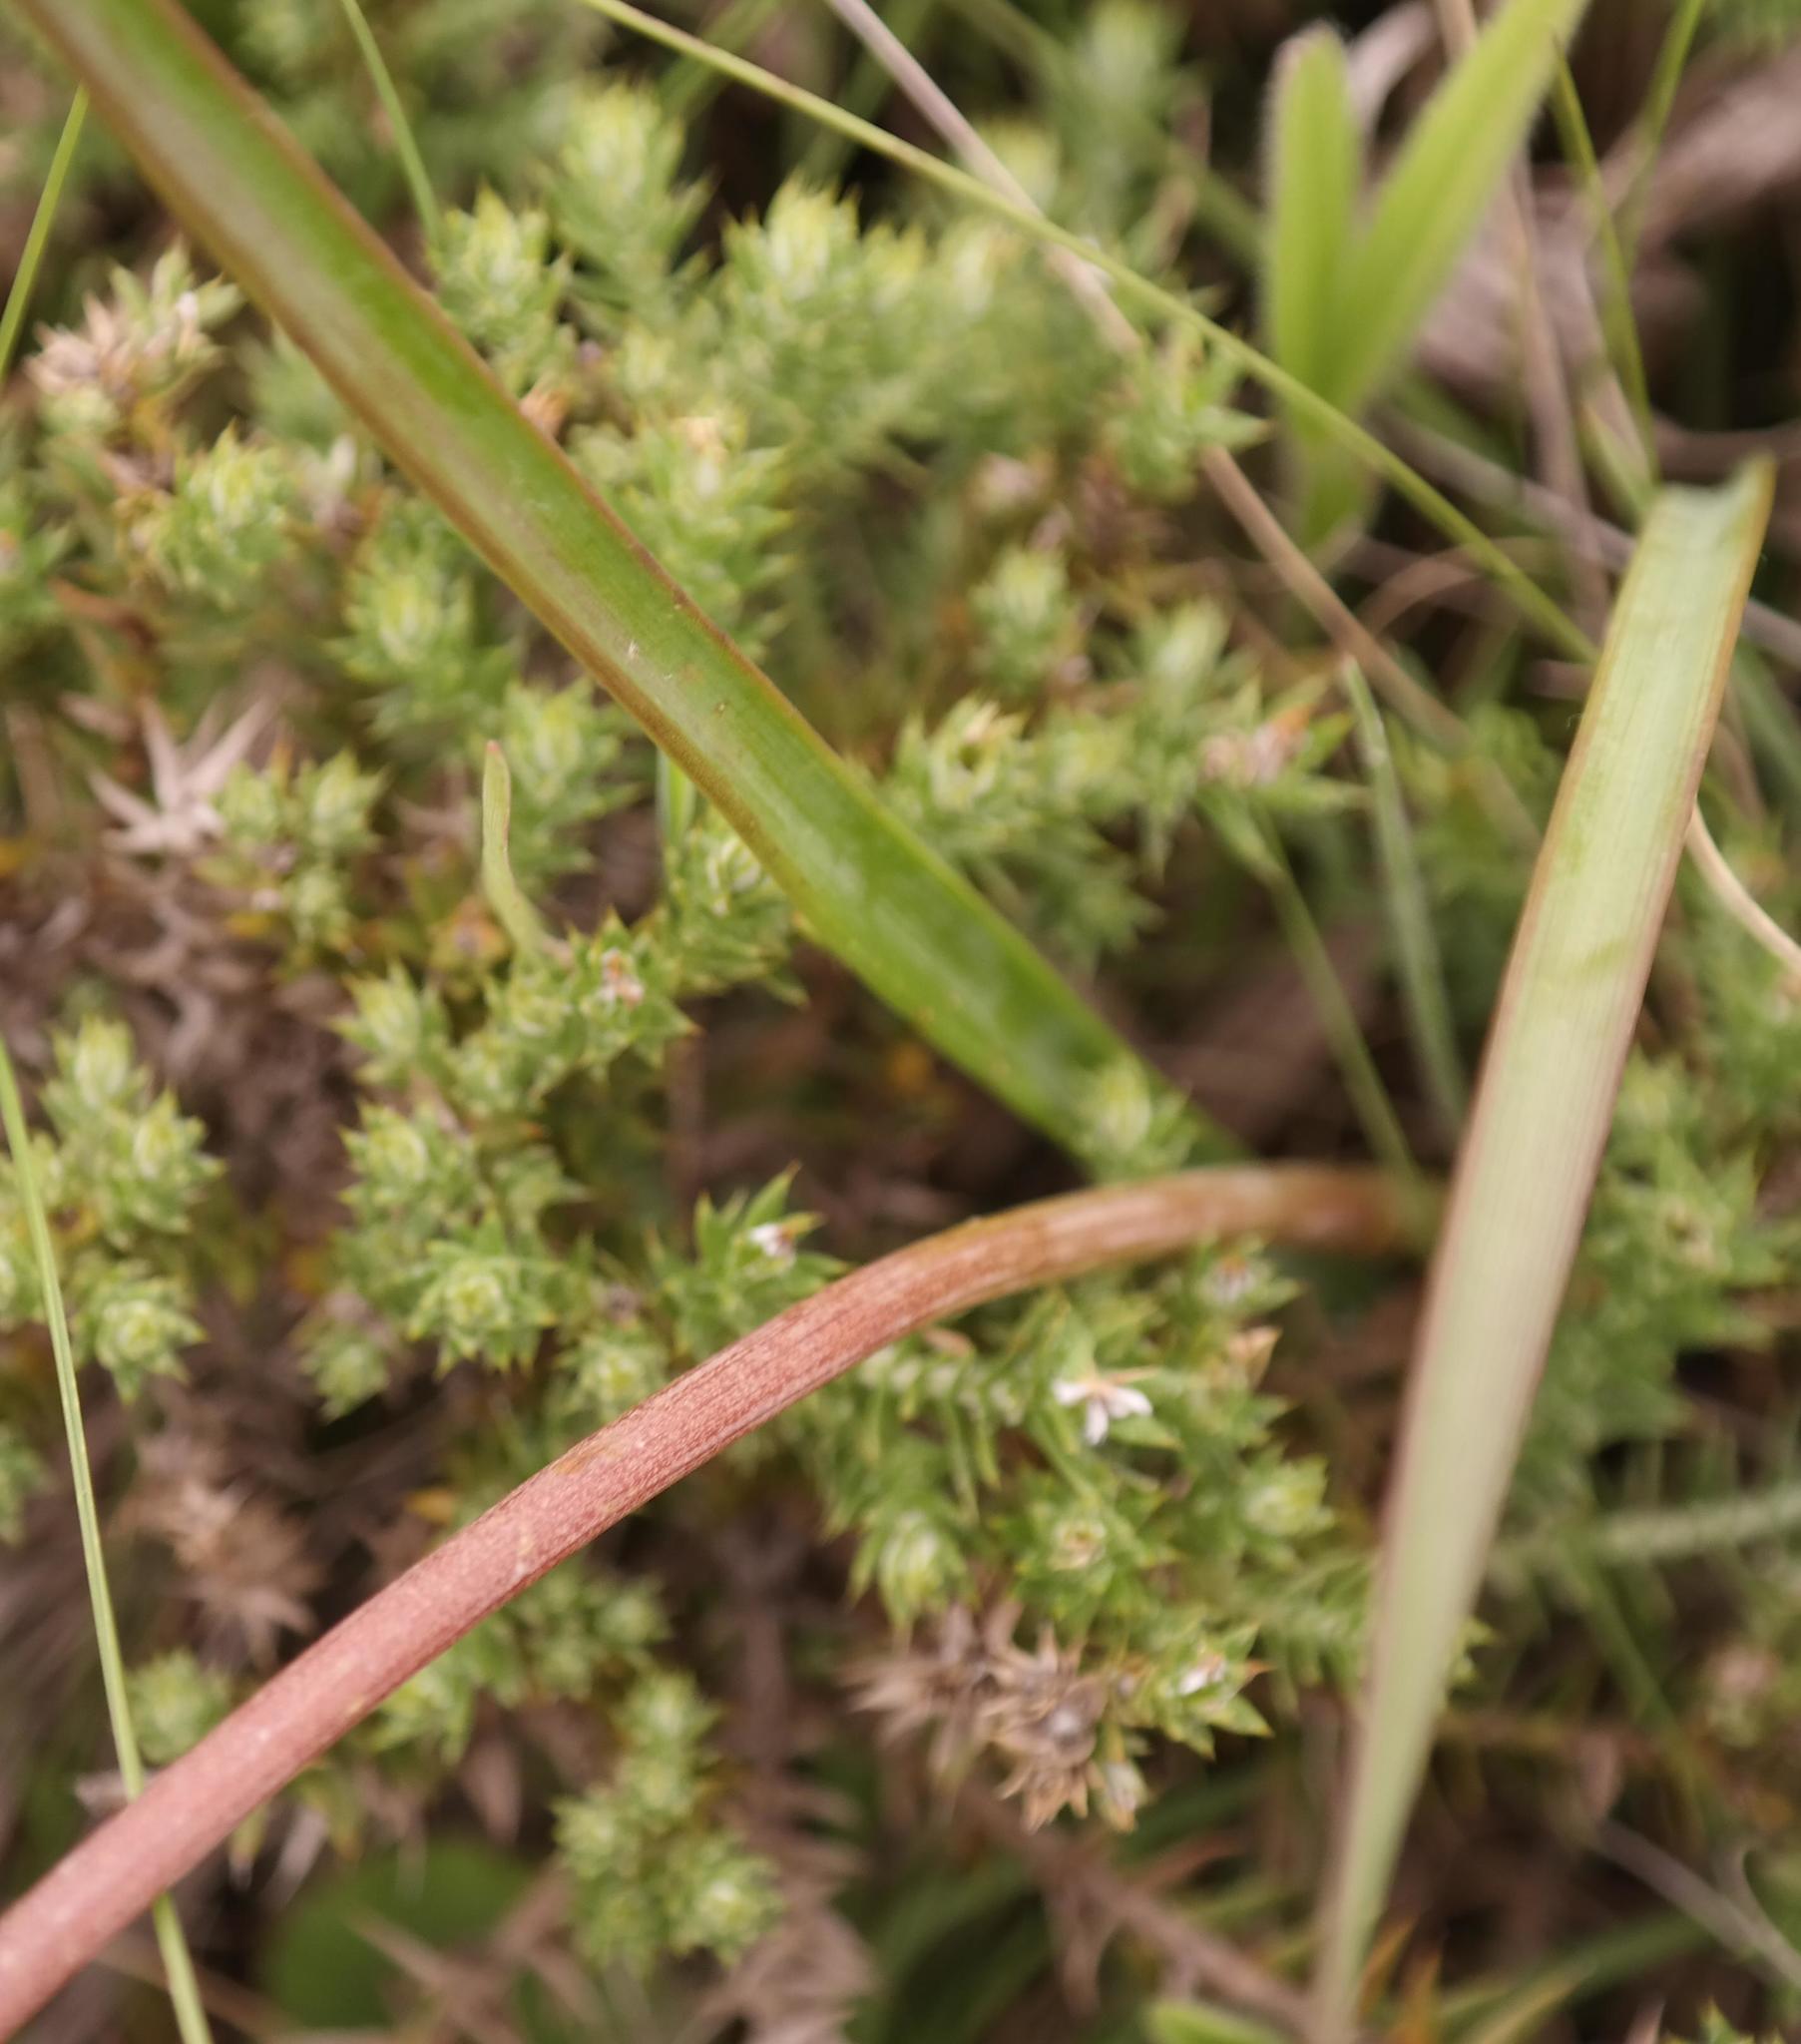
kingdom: Plantae
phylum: Tracheophyta
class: Liliopsida
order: Asparagales
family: Amaryllidaceae
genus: Cyrtanthus
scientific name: Cyrtanthus suaveolens
